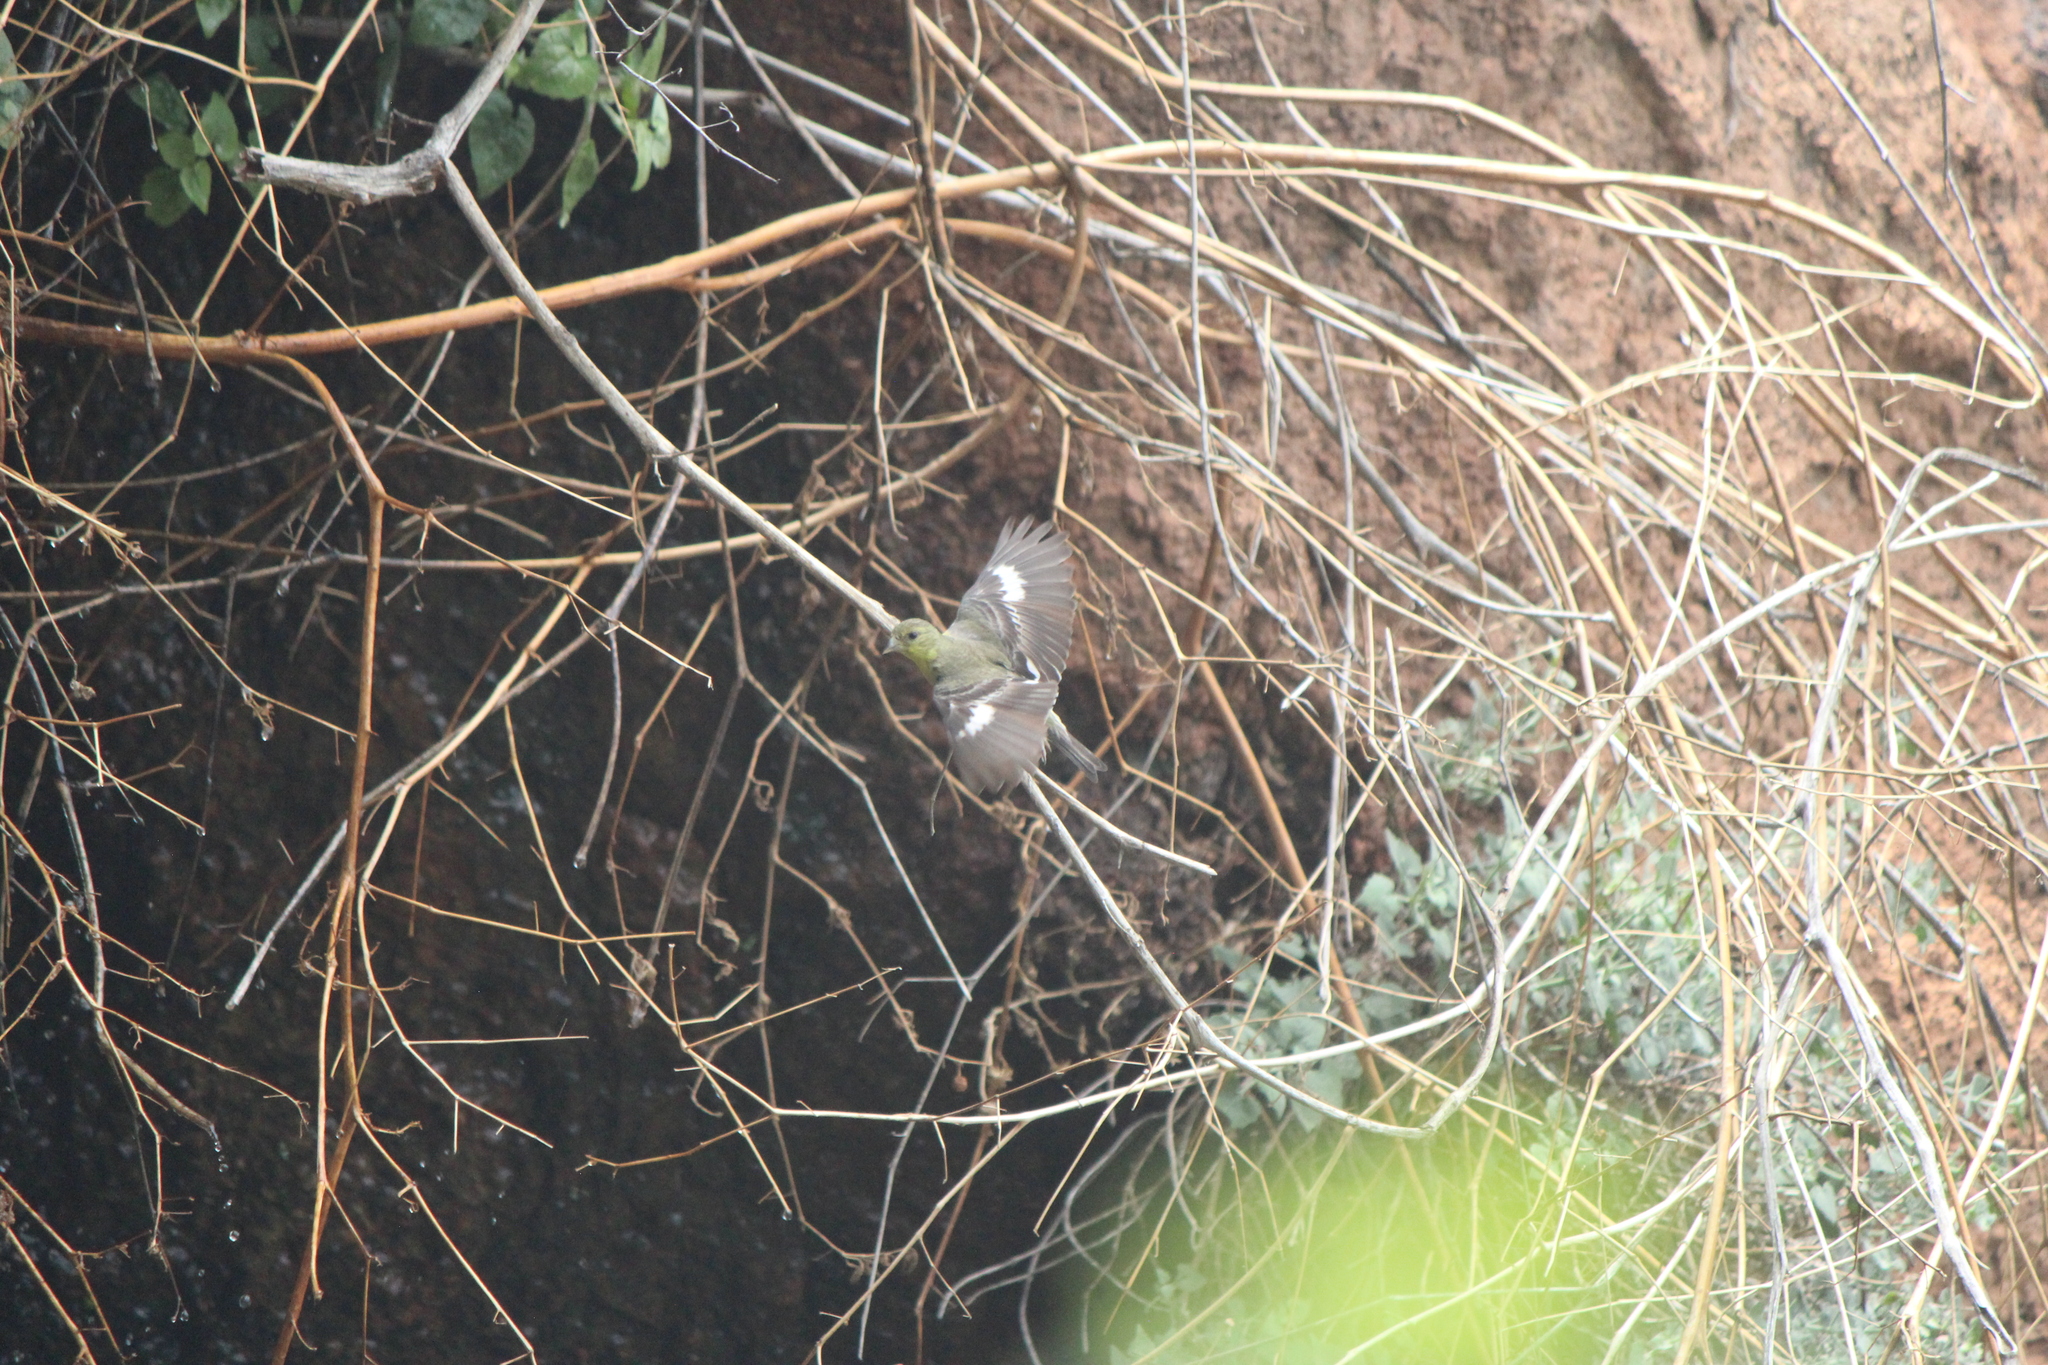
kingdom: Animalia
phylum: Chordata
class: Aves
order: Passeriformes
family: Fringillidae
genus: Spinus
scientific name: Spinus psaltria
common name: Lesser goldfinch
